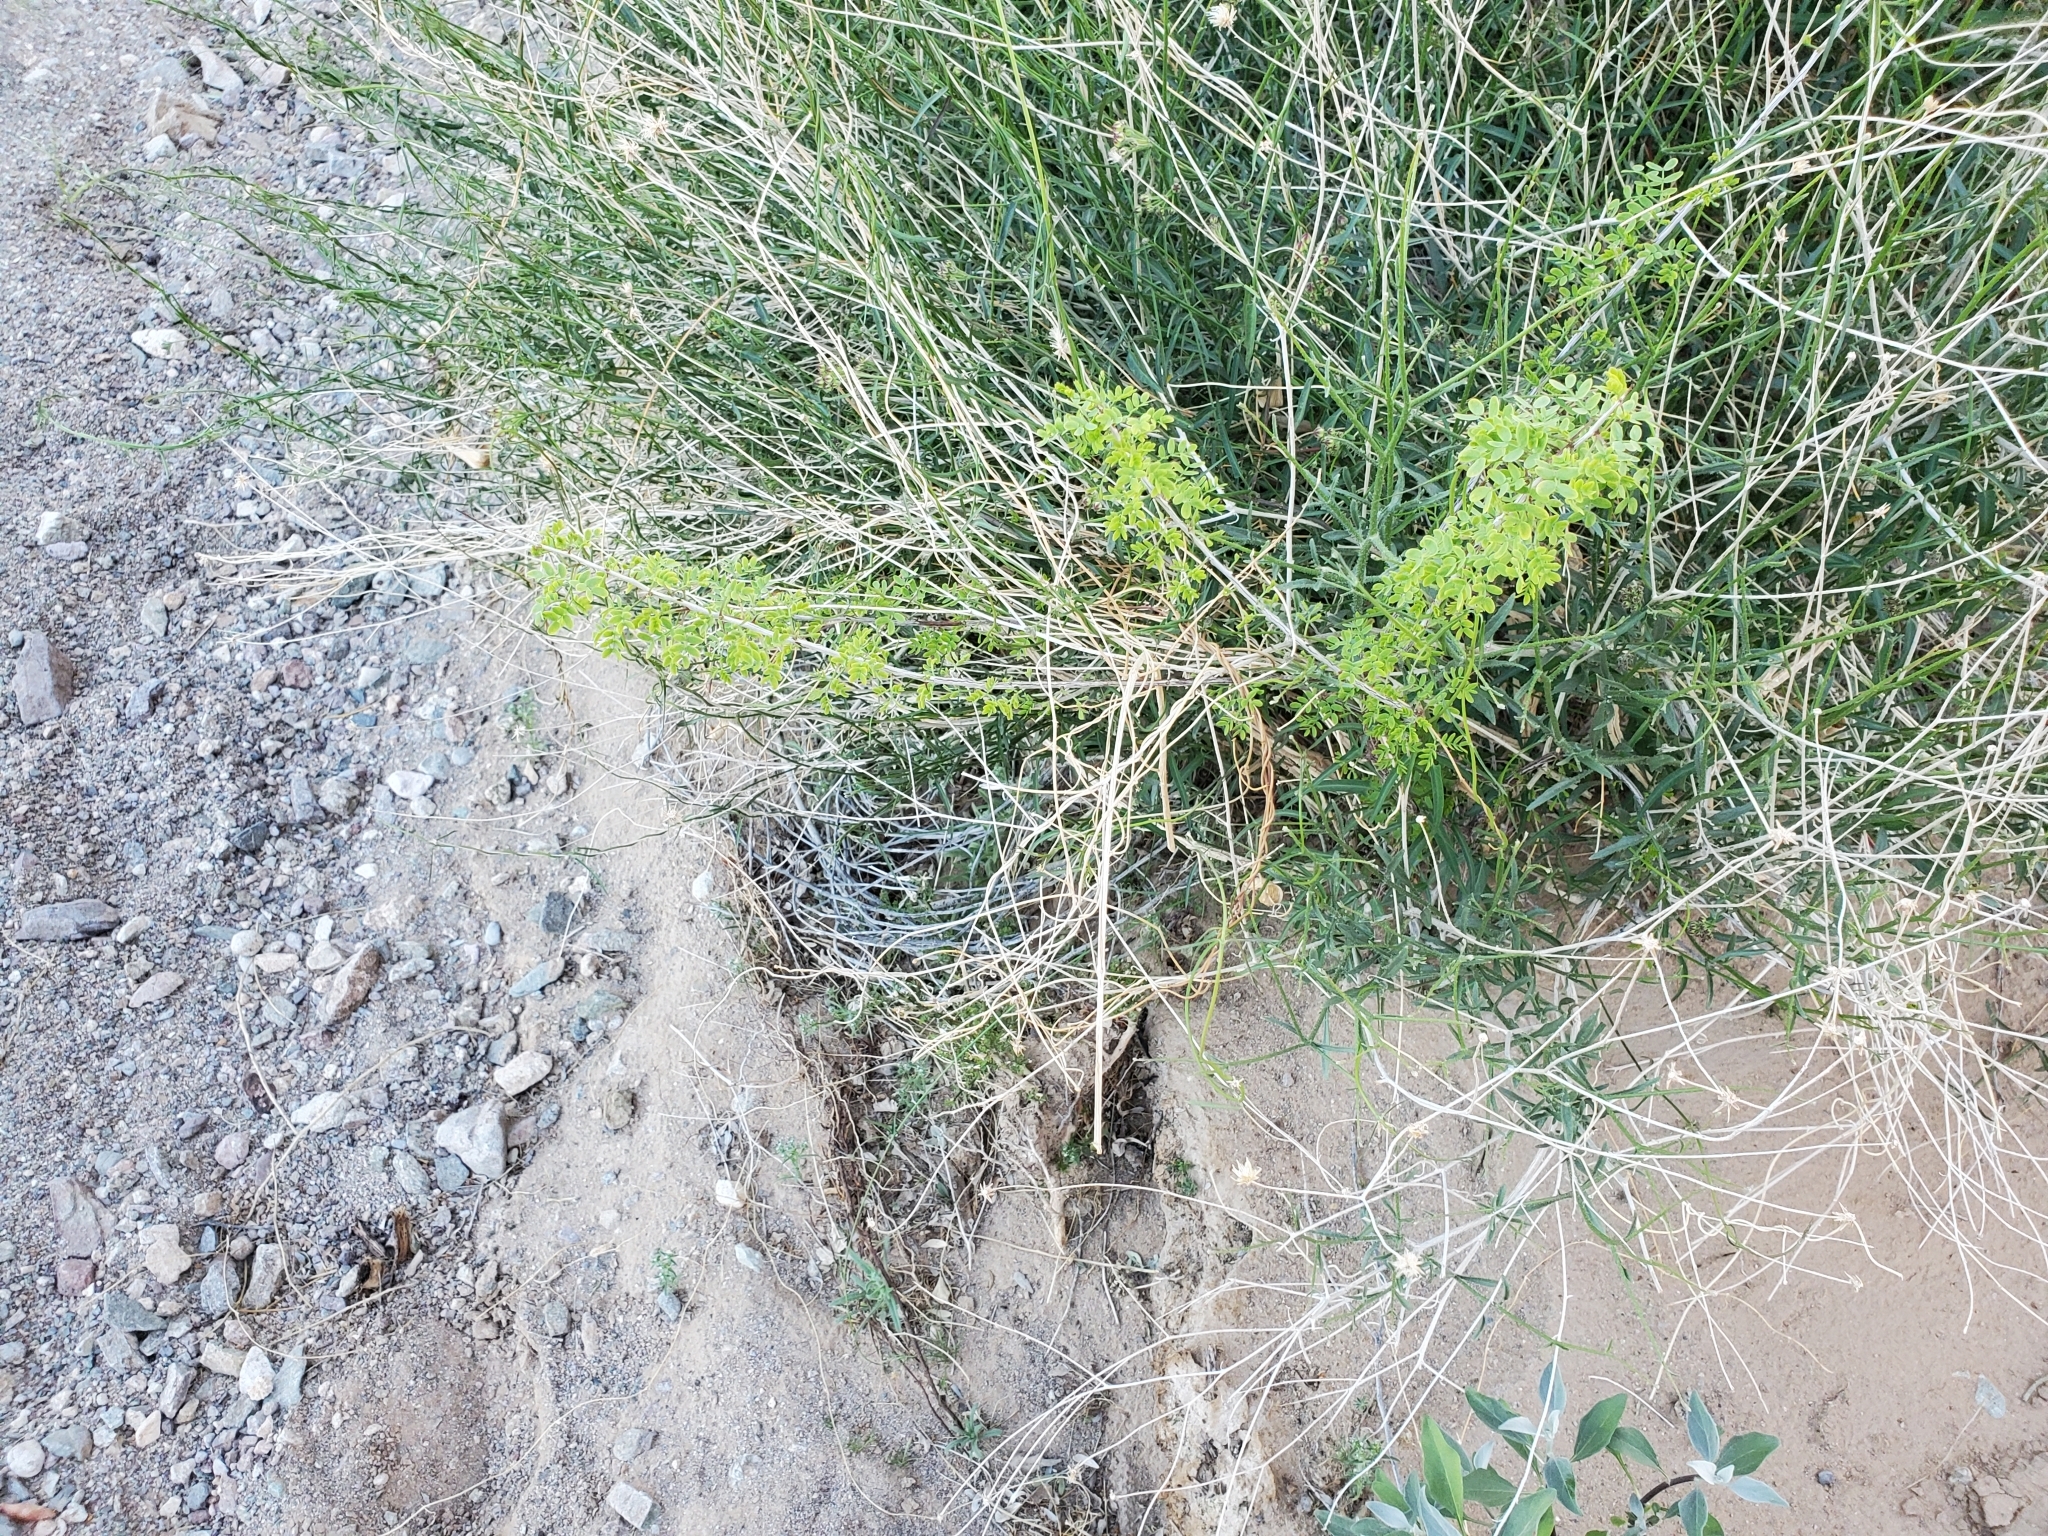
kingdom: Plantae
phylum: Tracheophyta
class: Magnoliopsida
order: Fabales
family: Fabaceae
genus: Senegalia
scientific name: Senegalia greggii
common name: Texas-mimosa
